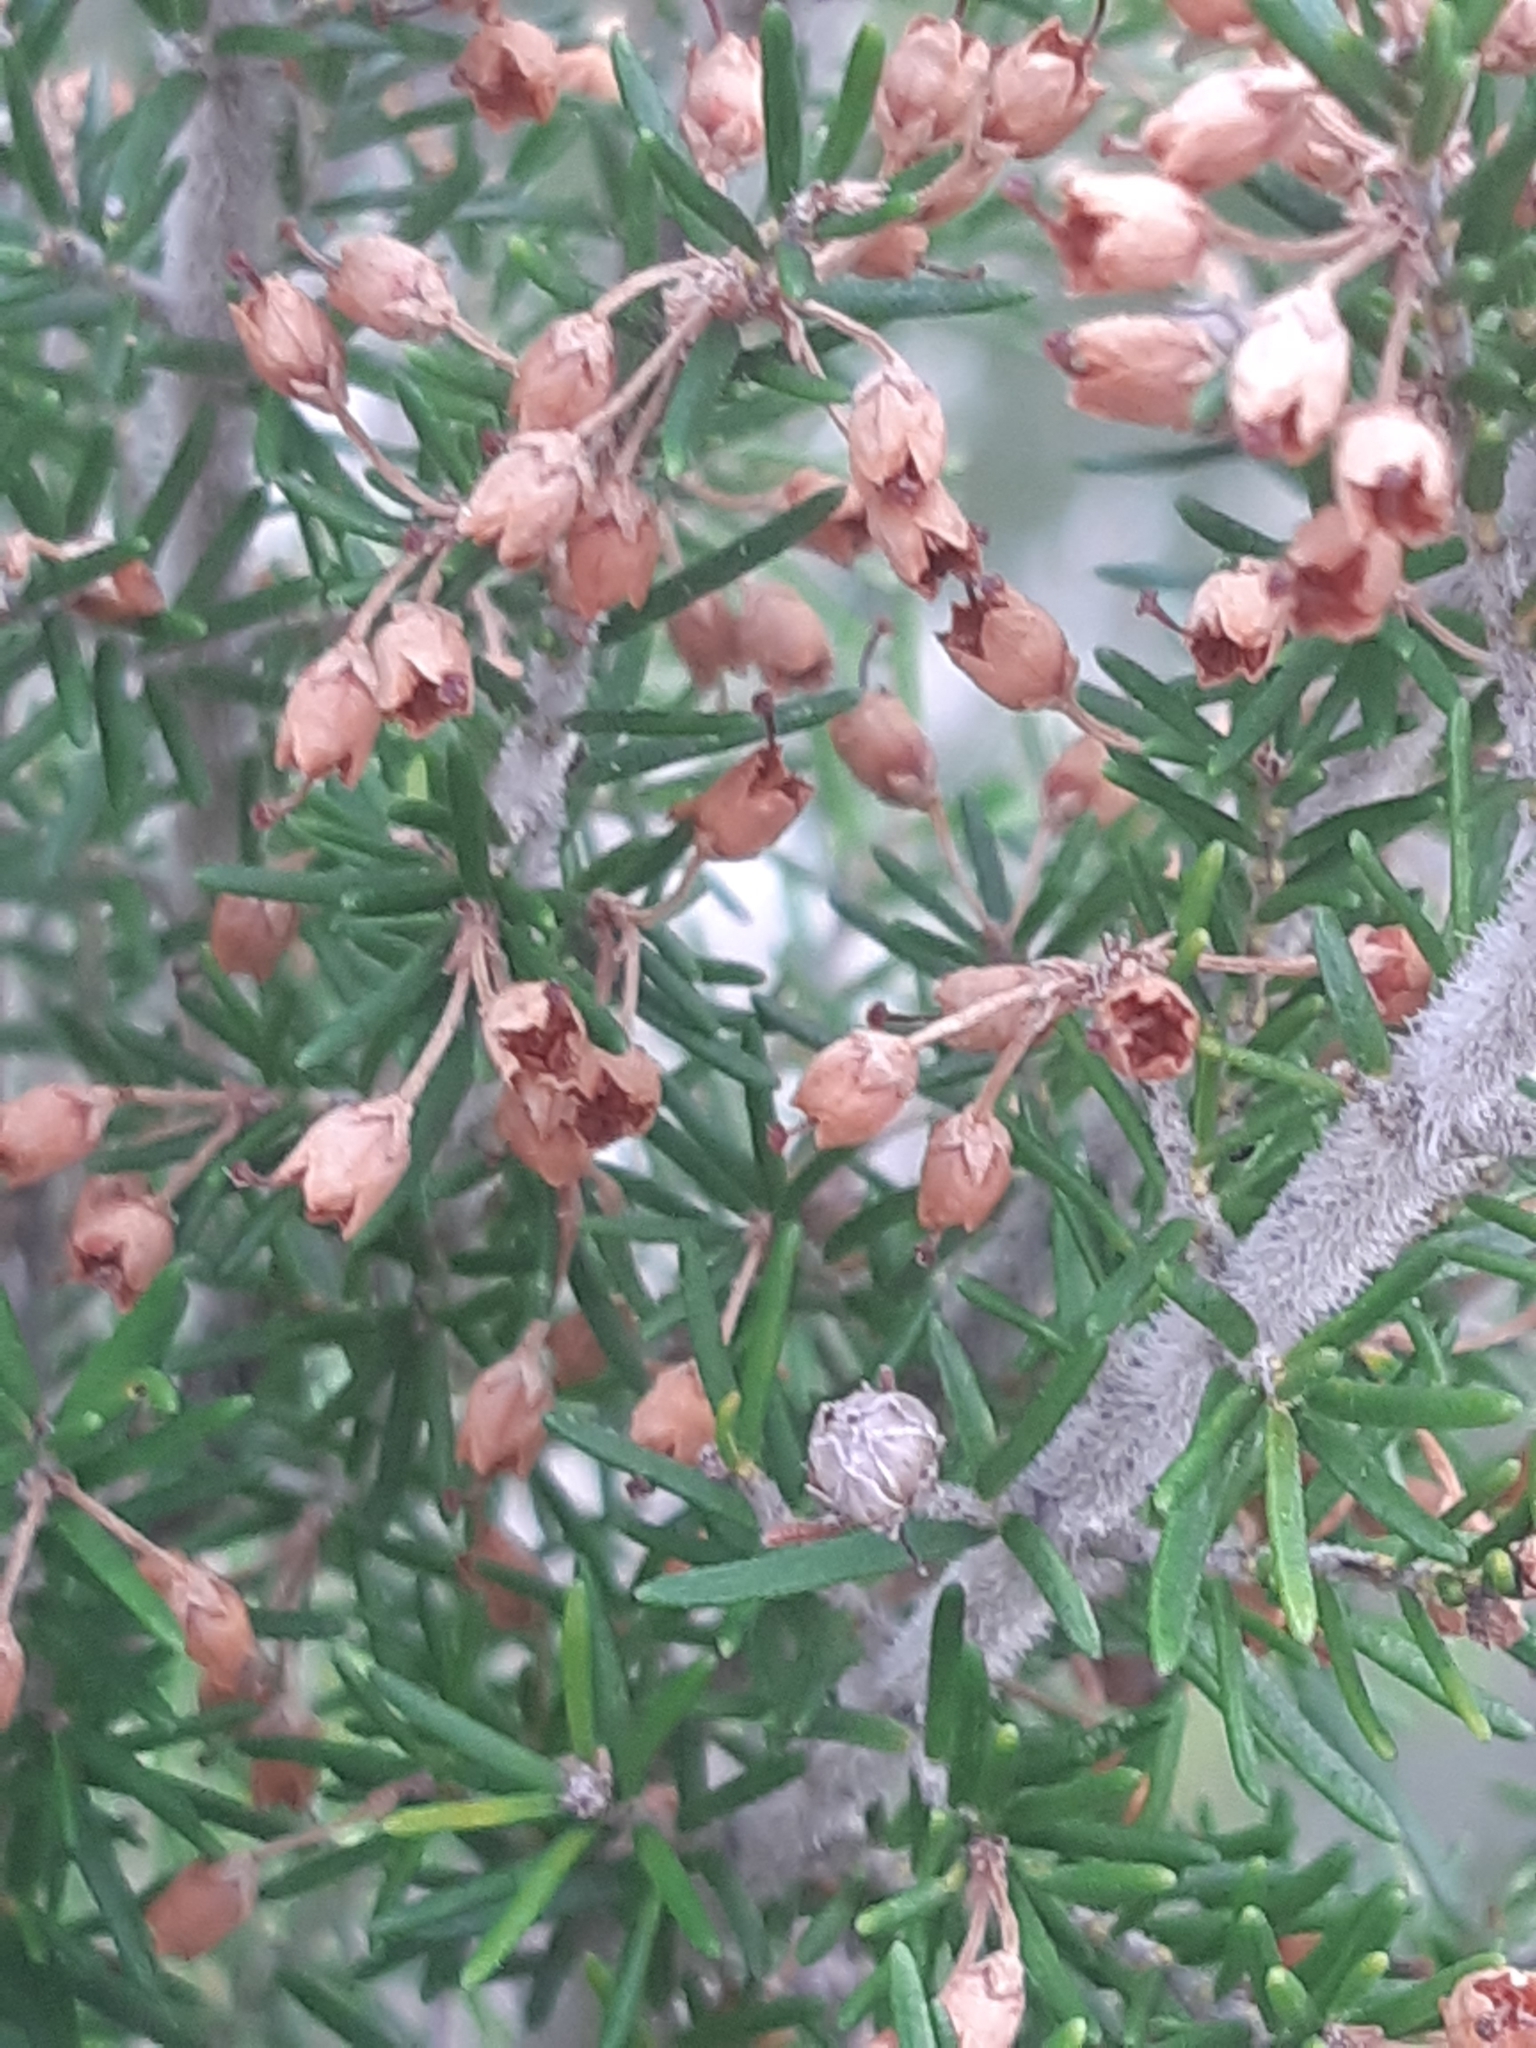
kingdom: Plantae
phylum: Tracheophyta
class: Magnoliopsida
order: Ericales
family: Ericaceae
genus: Erica
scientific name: Erica arborea
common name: Tree heath
